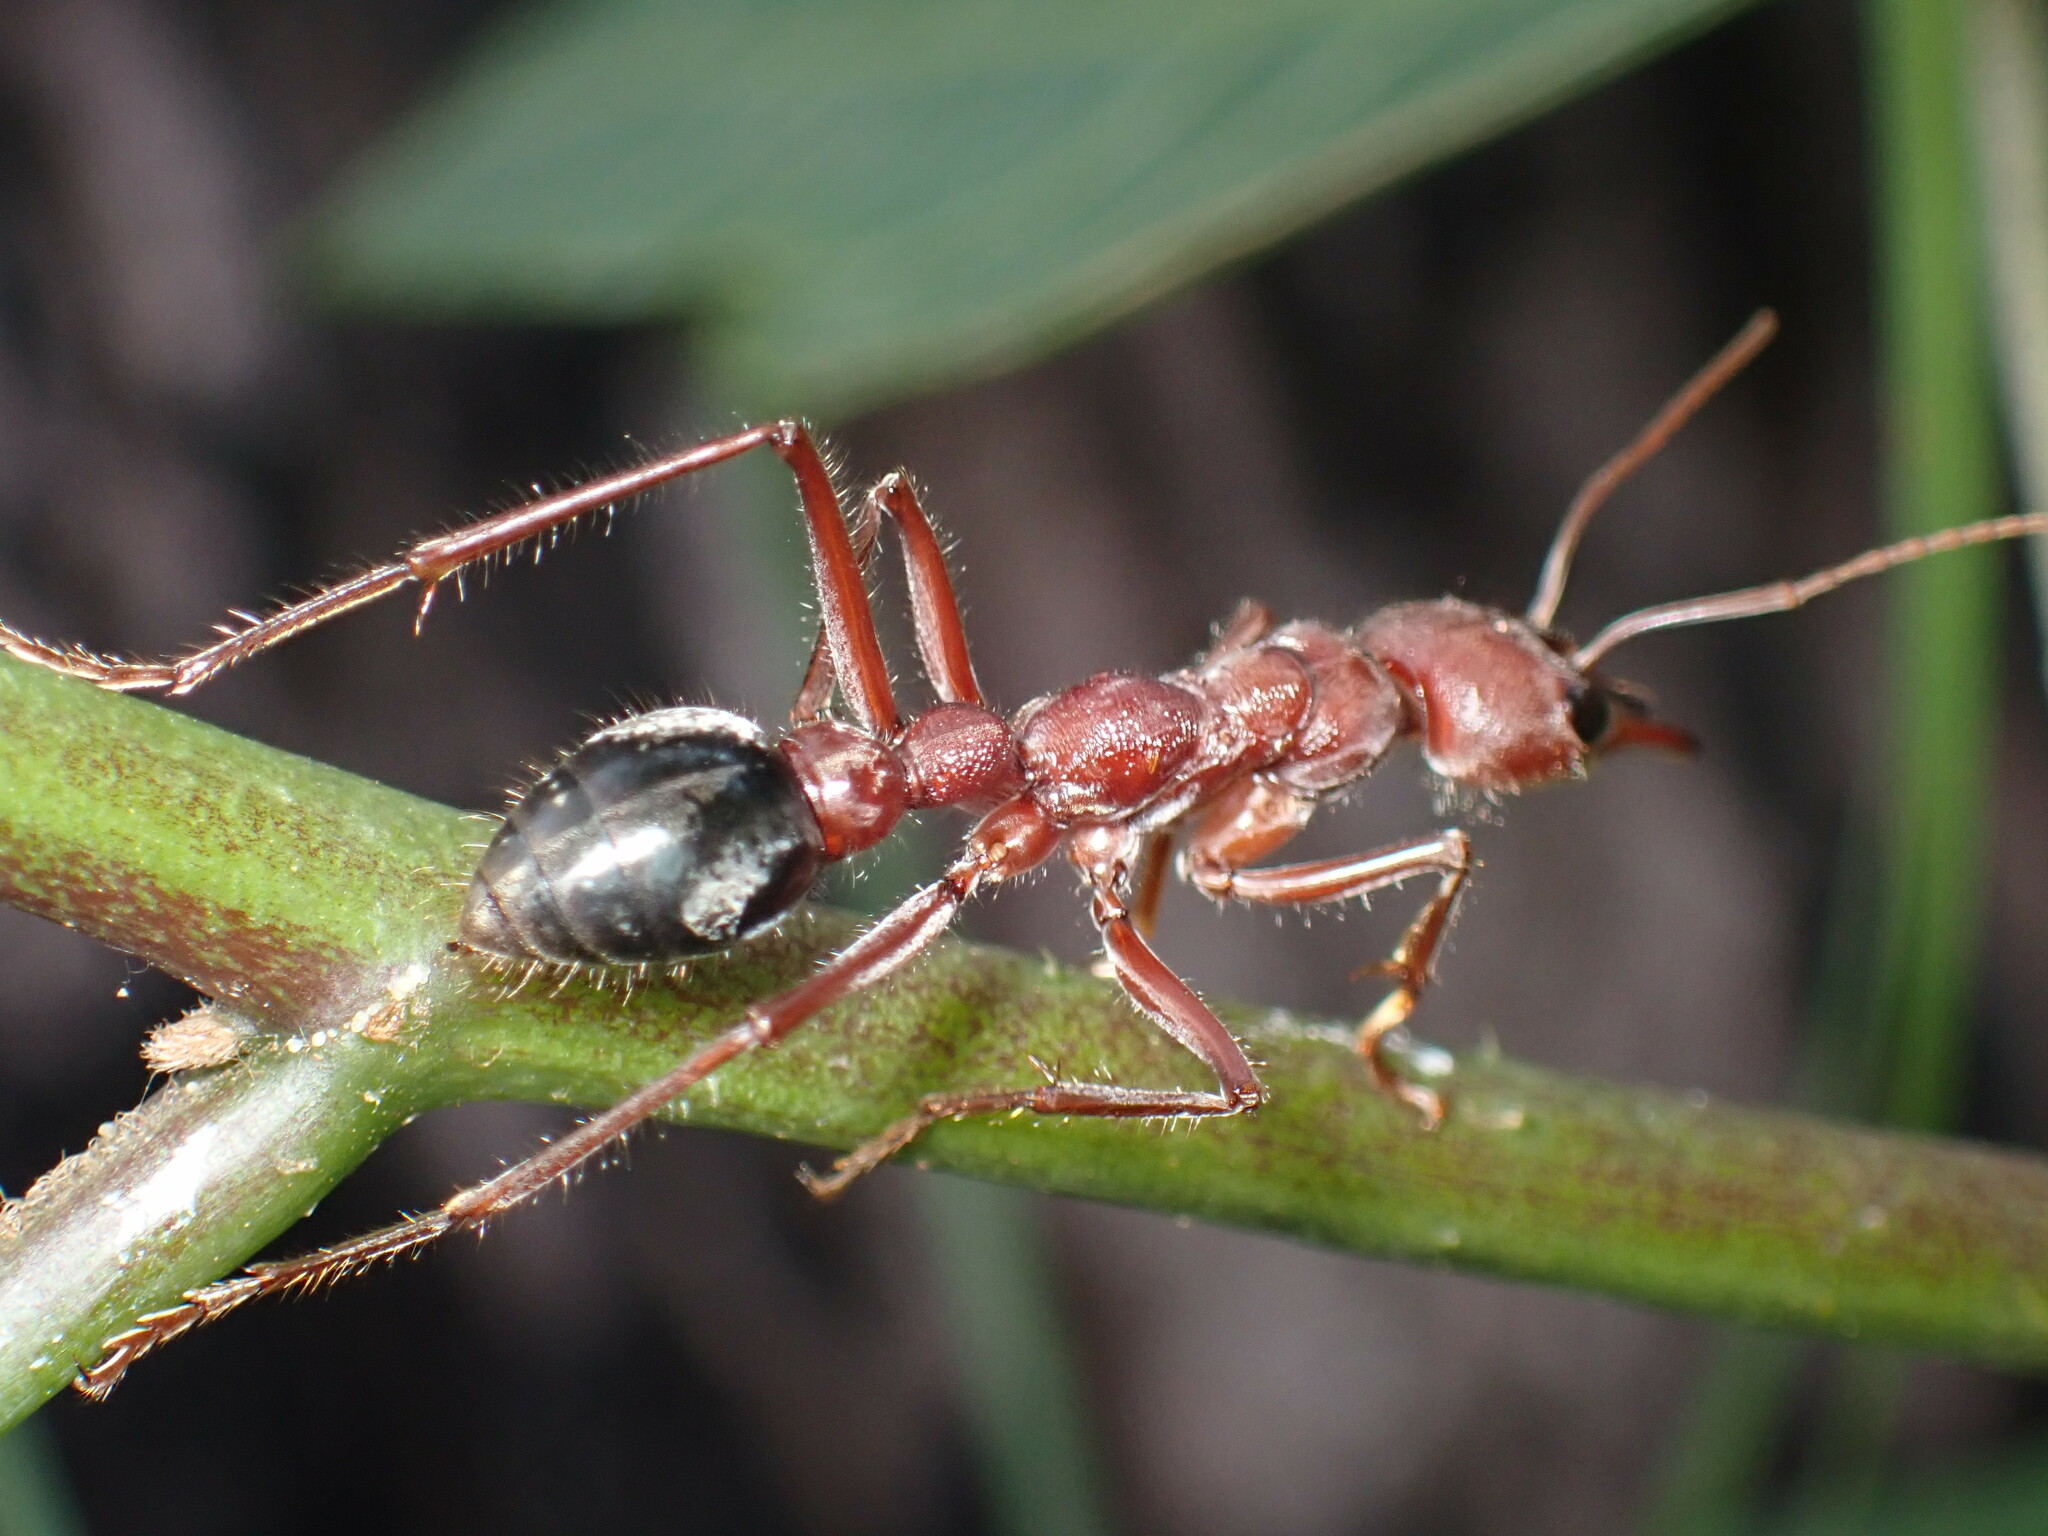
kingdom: Animalia
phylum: Arthropoda
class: Insecta
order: Hymenoptera
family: Formicidae
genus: Myrmecia
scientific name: Myrmecia comata
